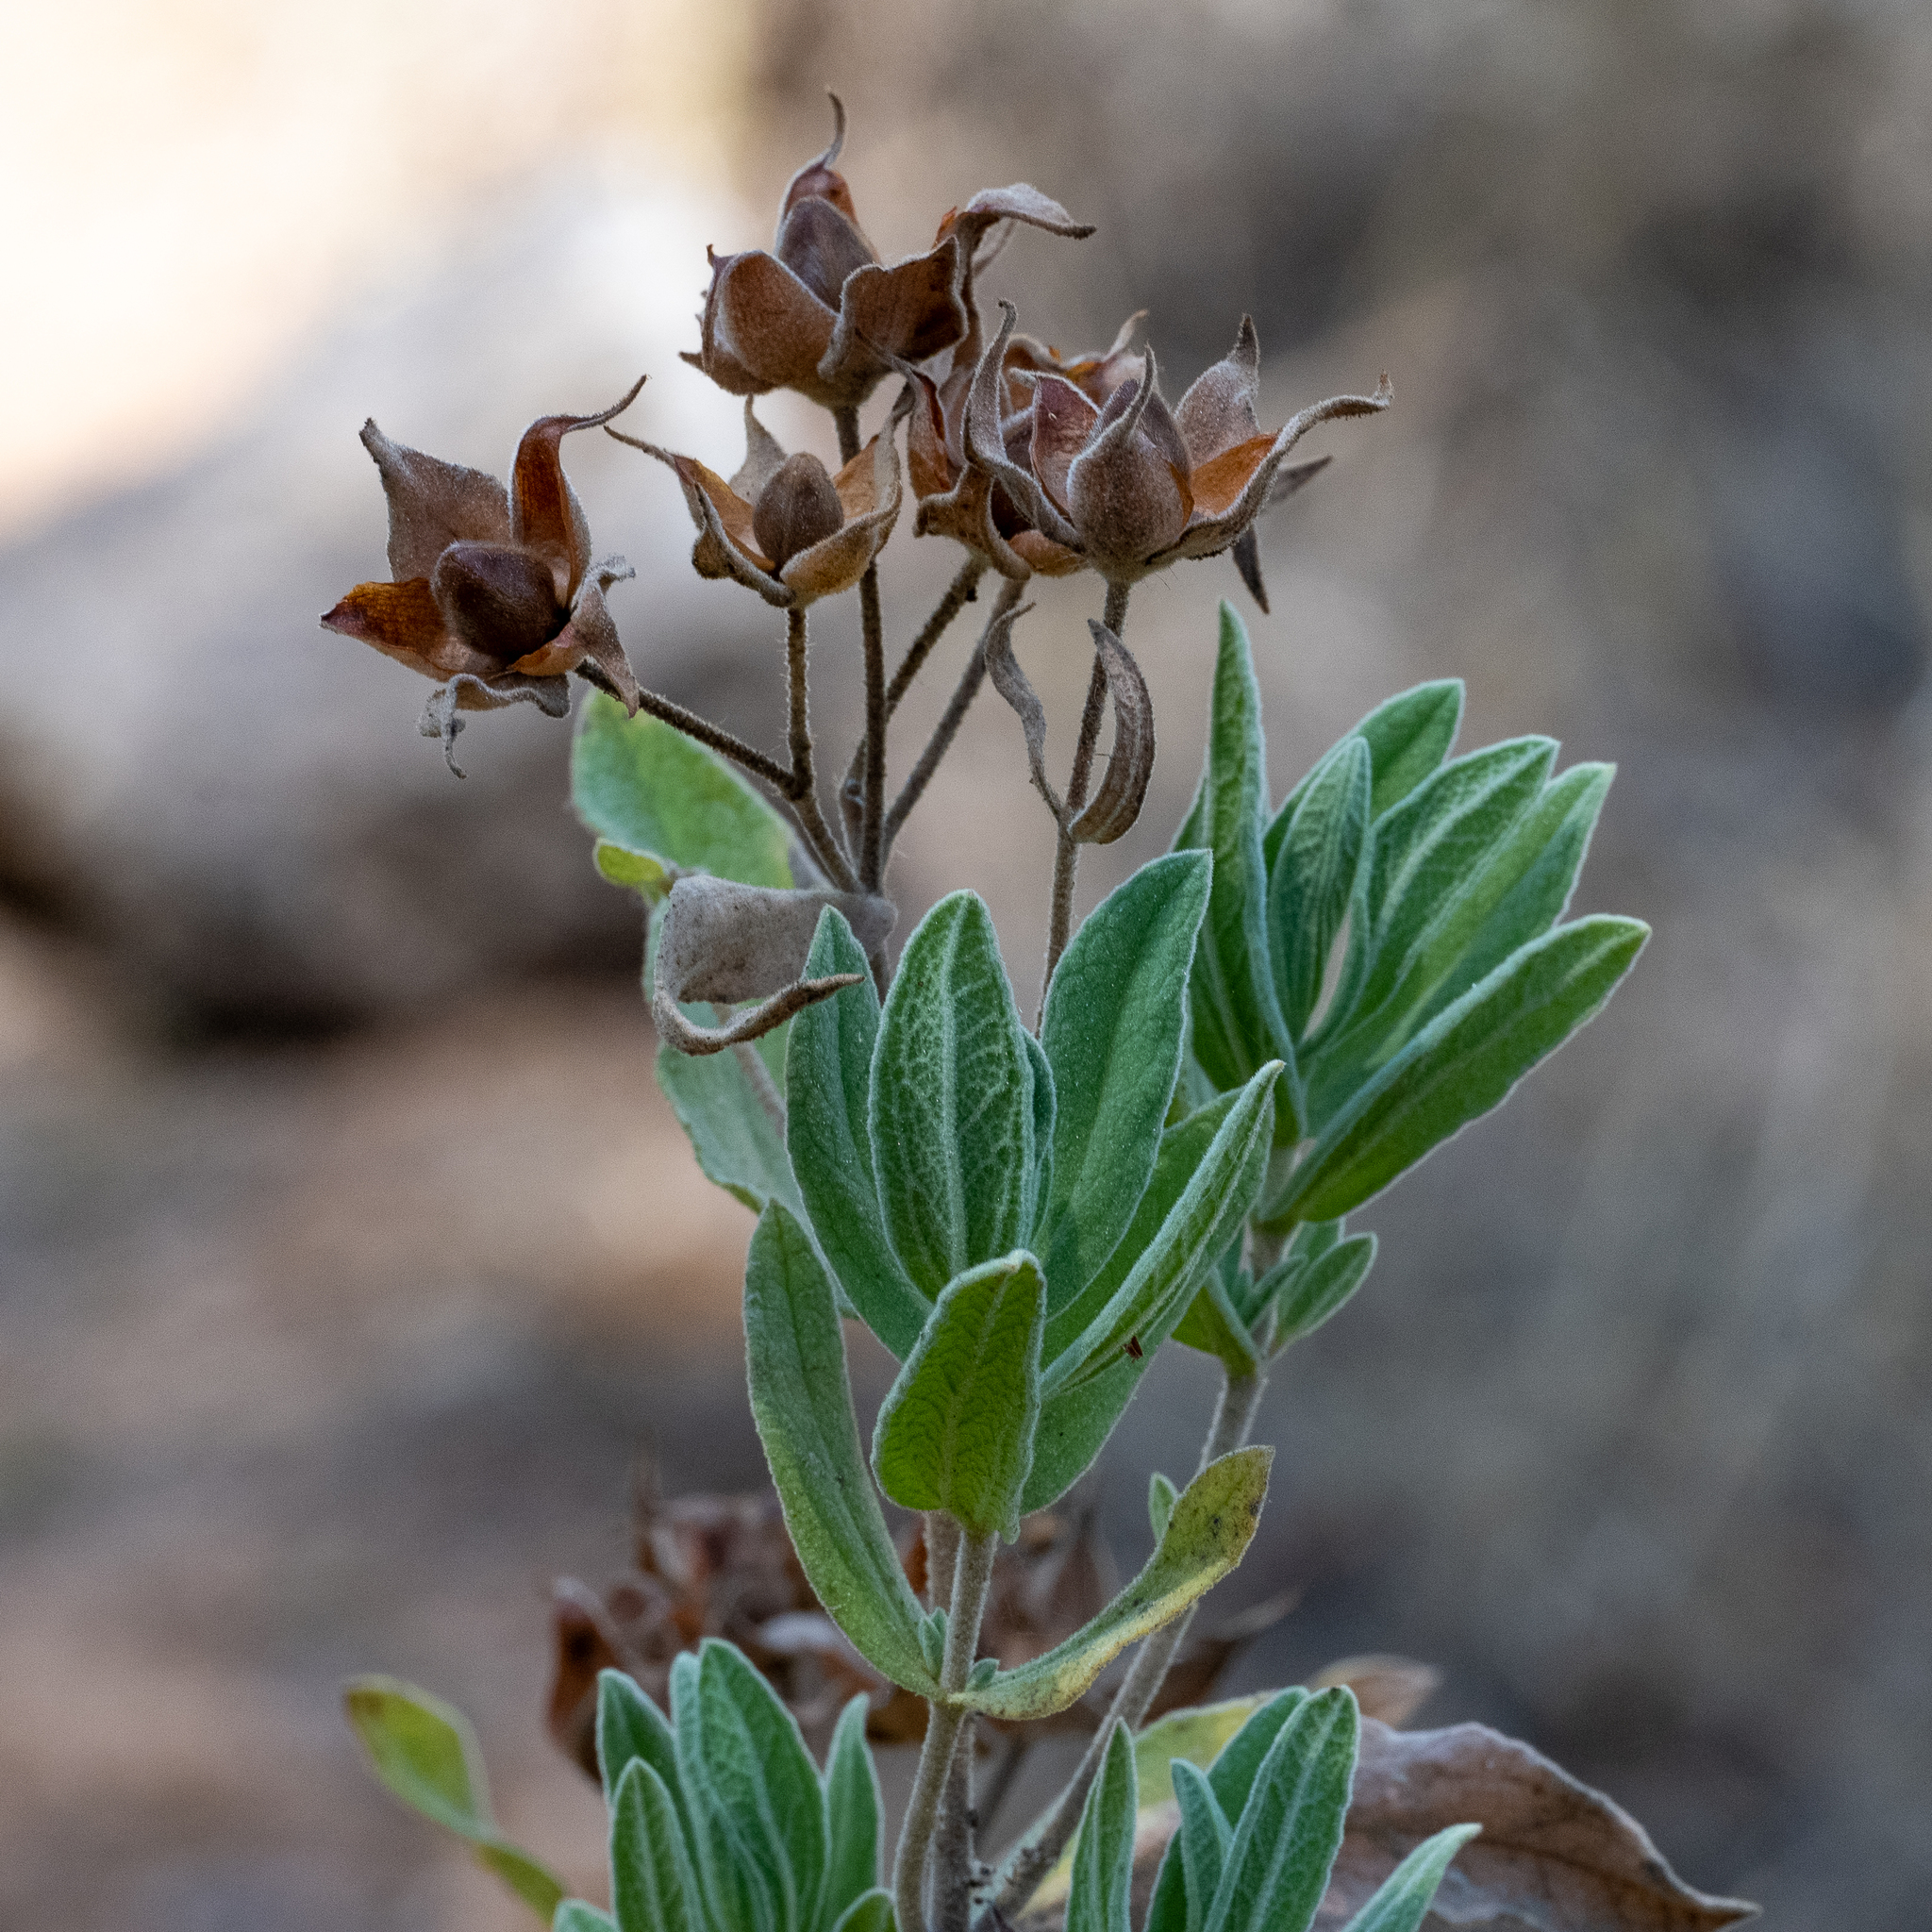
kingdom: Plantae
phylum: Tracheophyta
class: Magnoliopsida
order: Malvales
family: Cistaceae
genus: Cistus
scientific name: Cistus albidus
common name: White-leaf rock-rose
